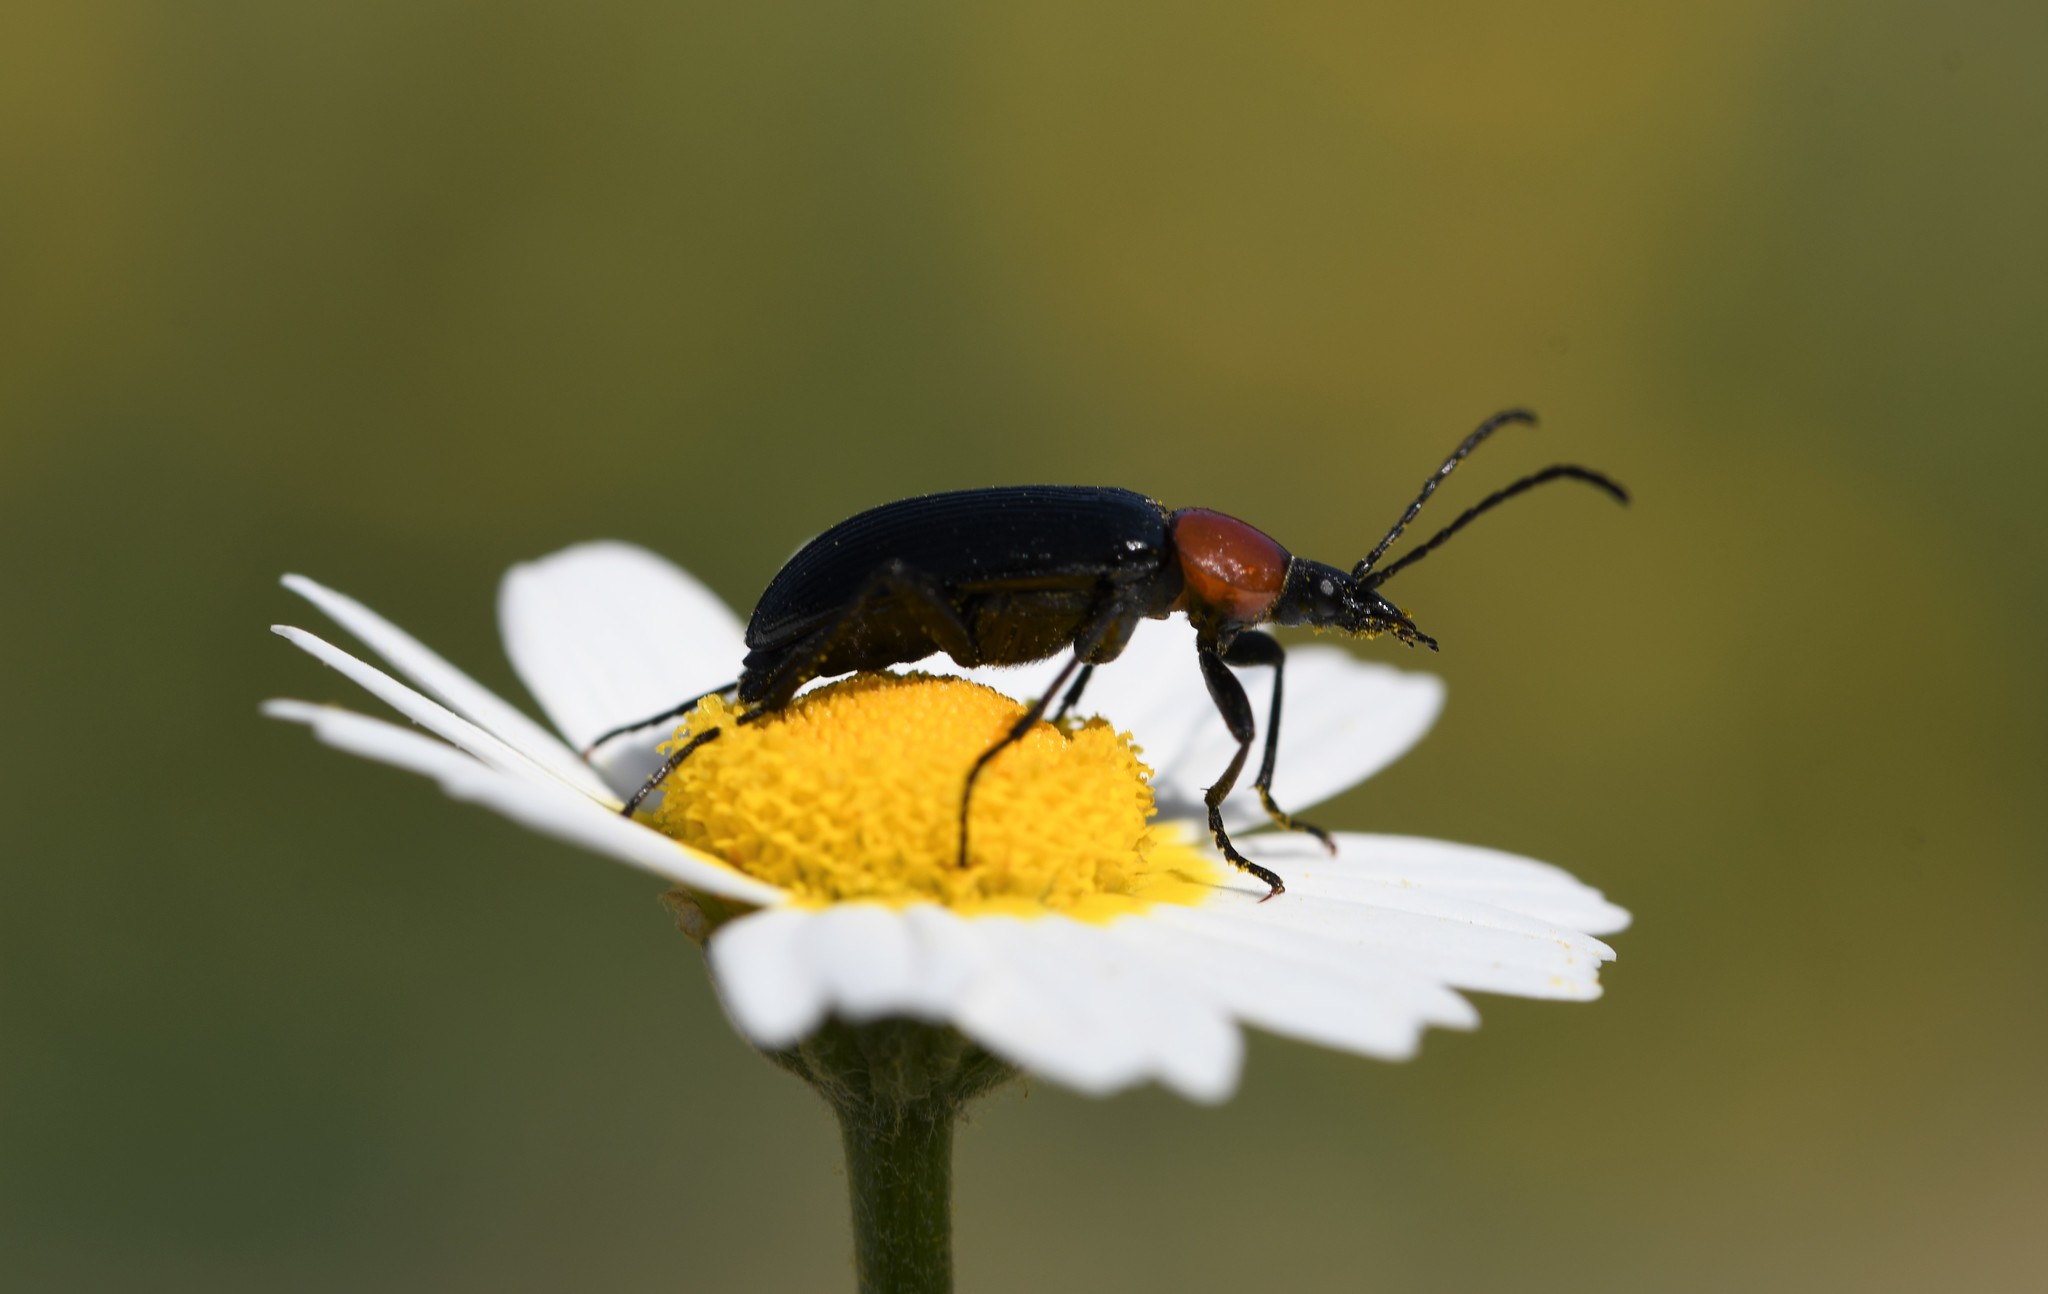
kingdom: Animalia
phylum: Arthropoda
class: Insecta
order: Coleoptera
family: Tenebrionidae
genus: Heliotaurus
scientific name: Heliotaurus ruficollis
